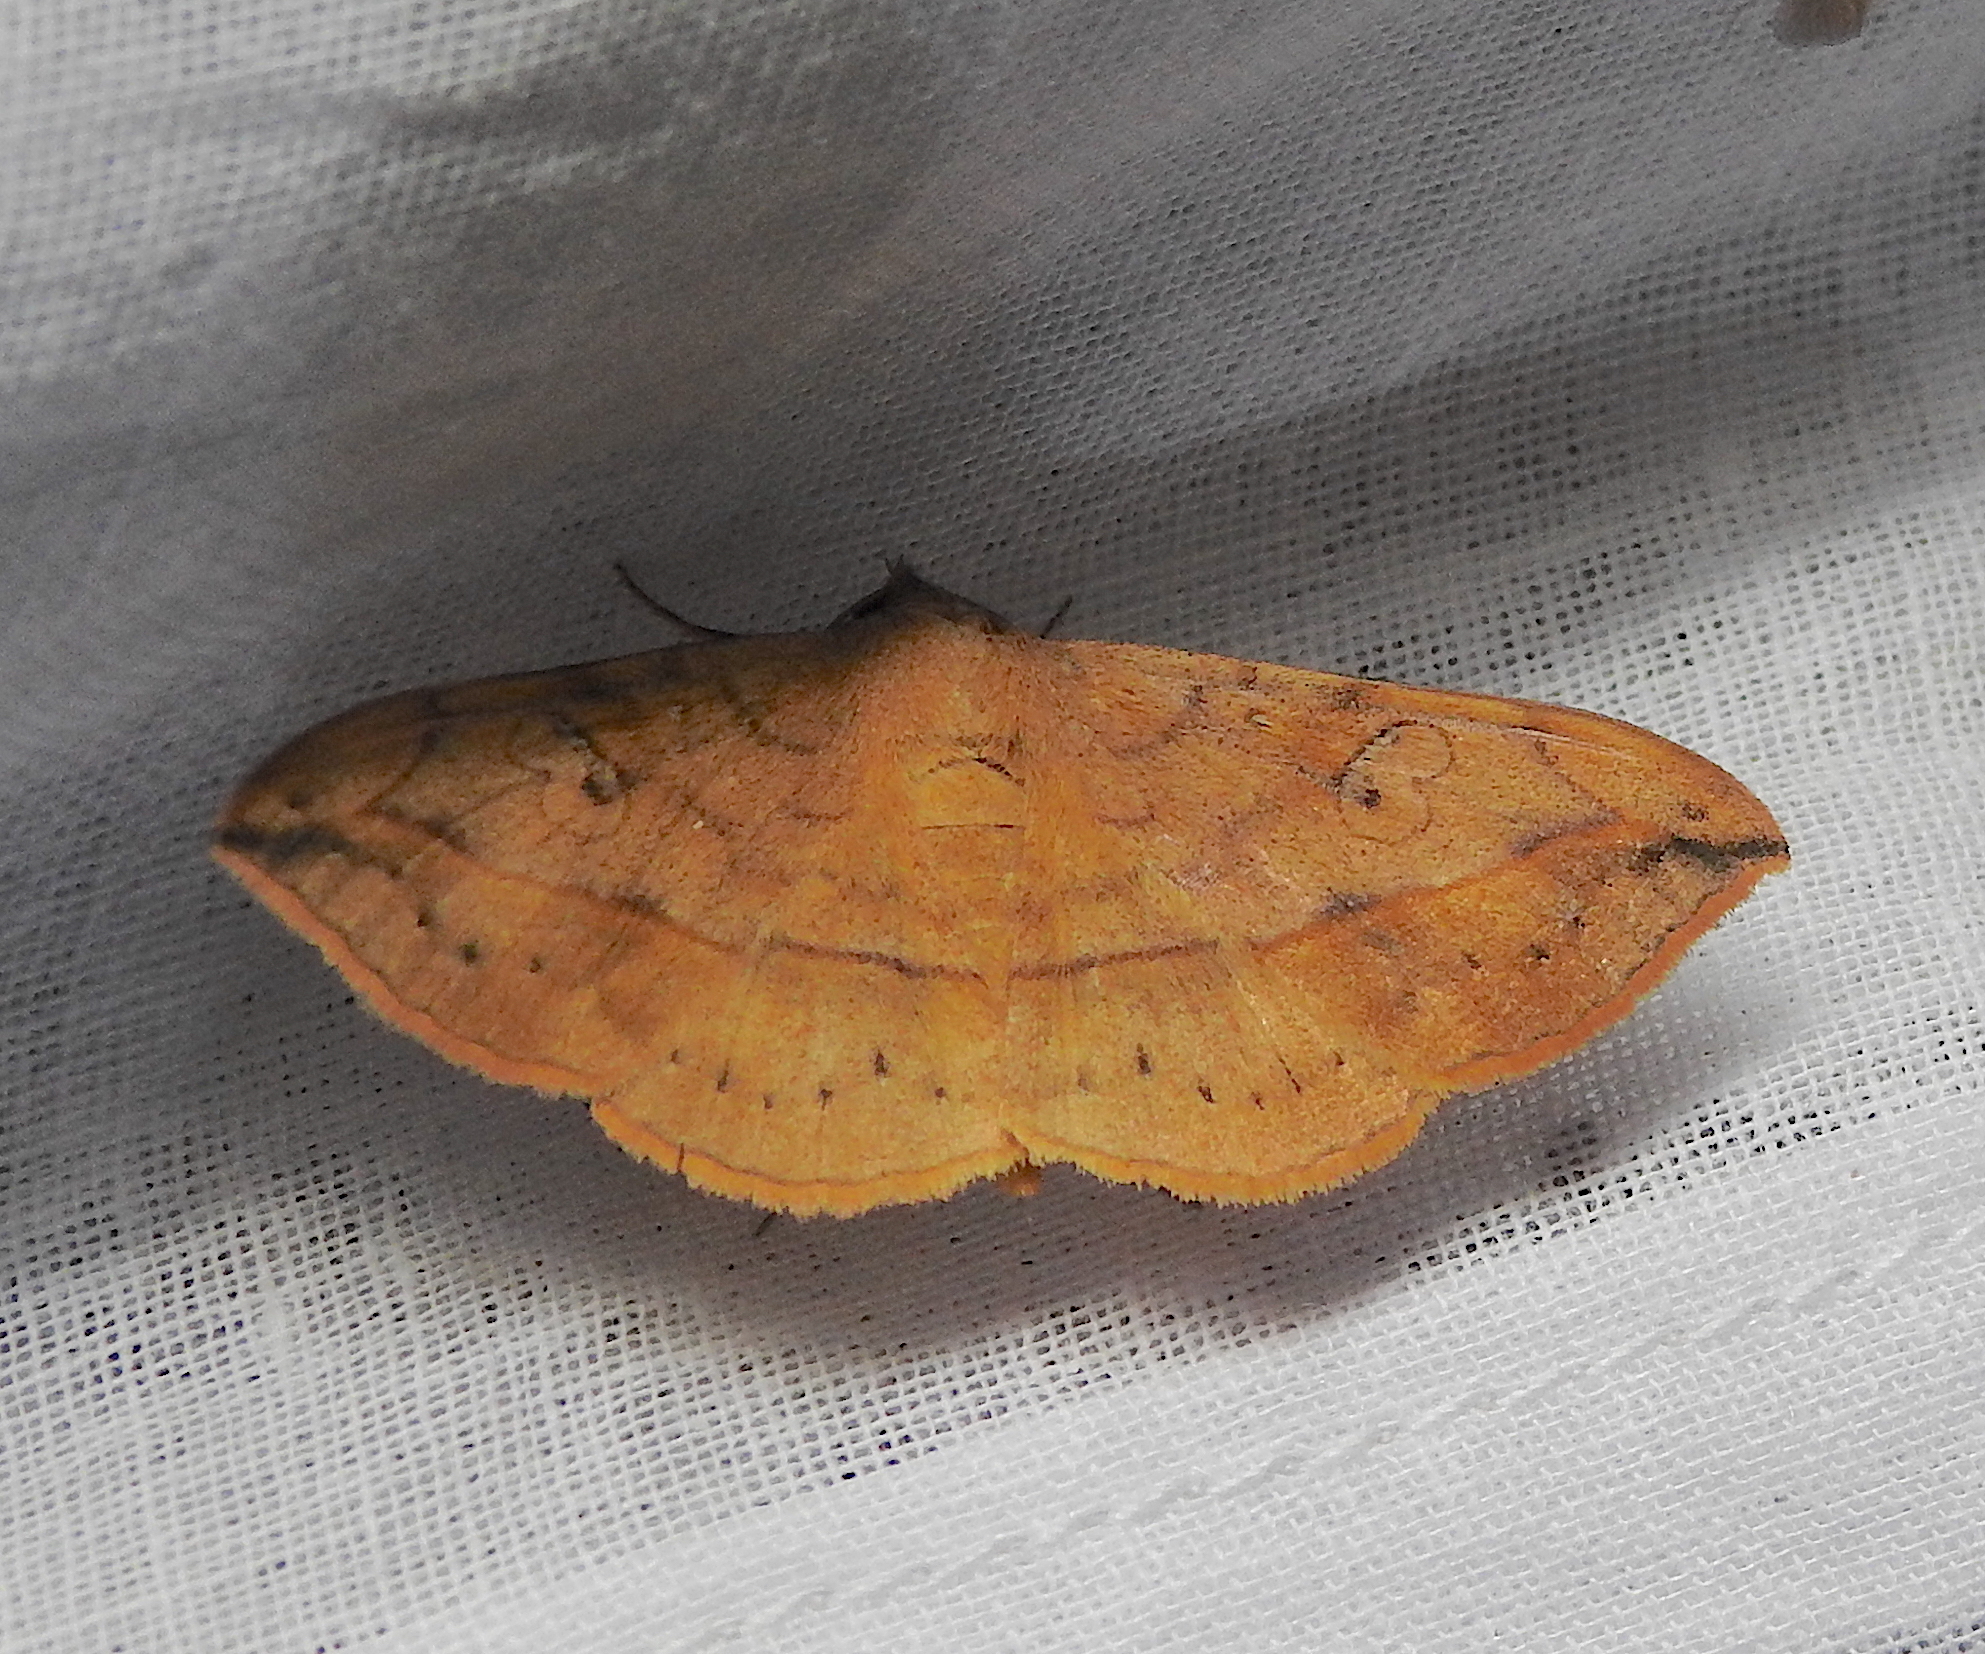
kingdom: Animalia
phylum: Arthropoda
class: Insecta
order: Lepidoptera
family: Erebidae
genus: Anticarsia
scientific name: Anticarsia irrorata
